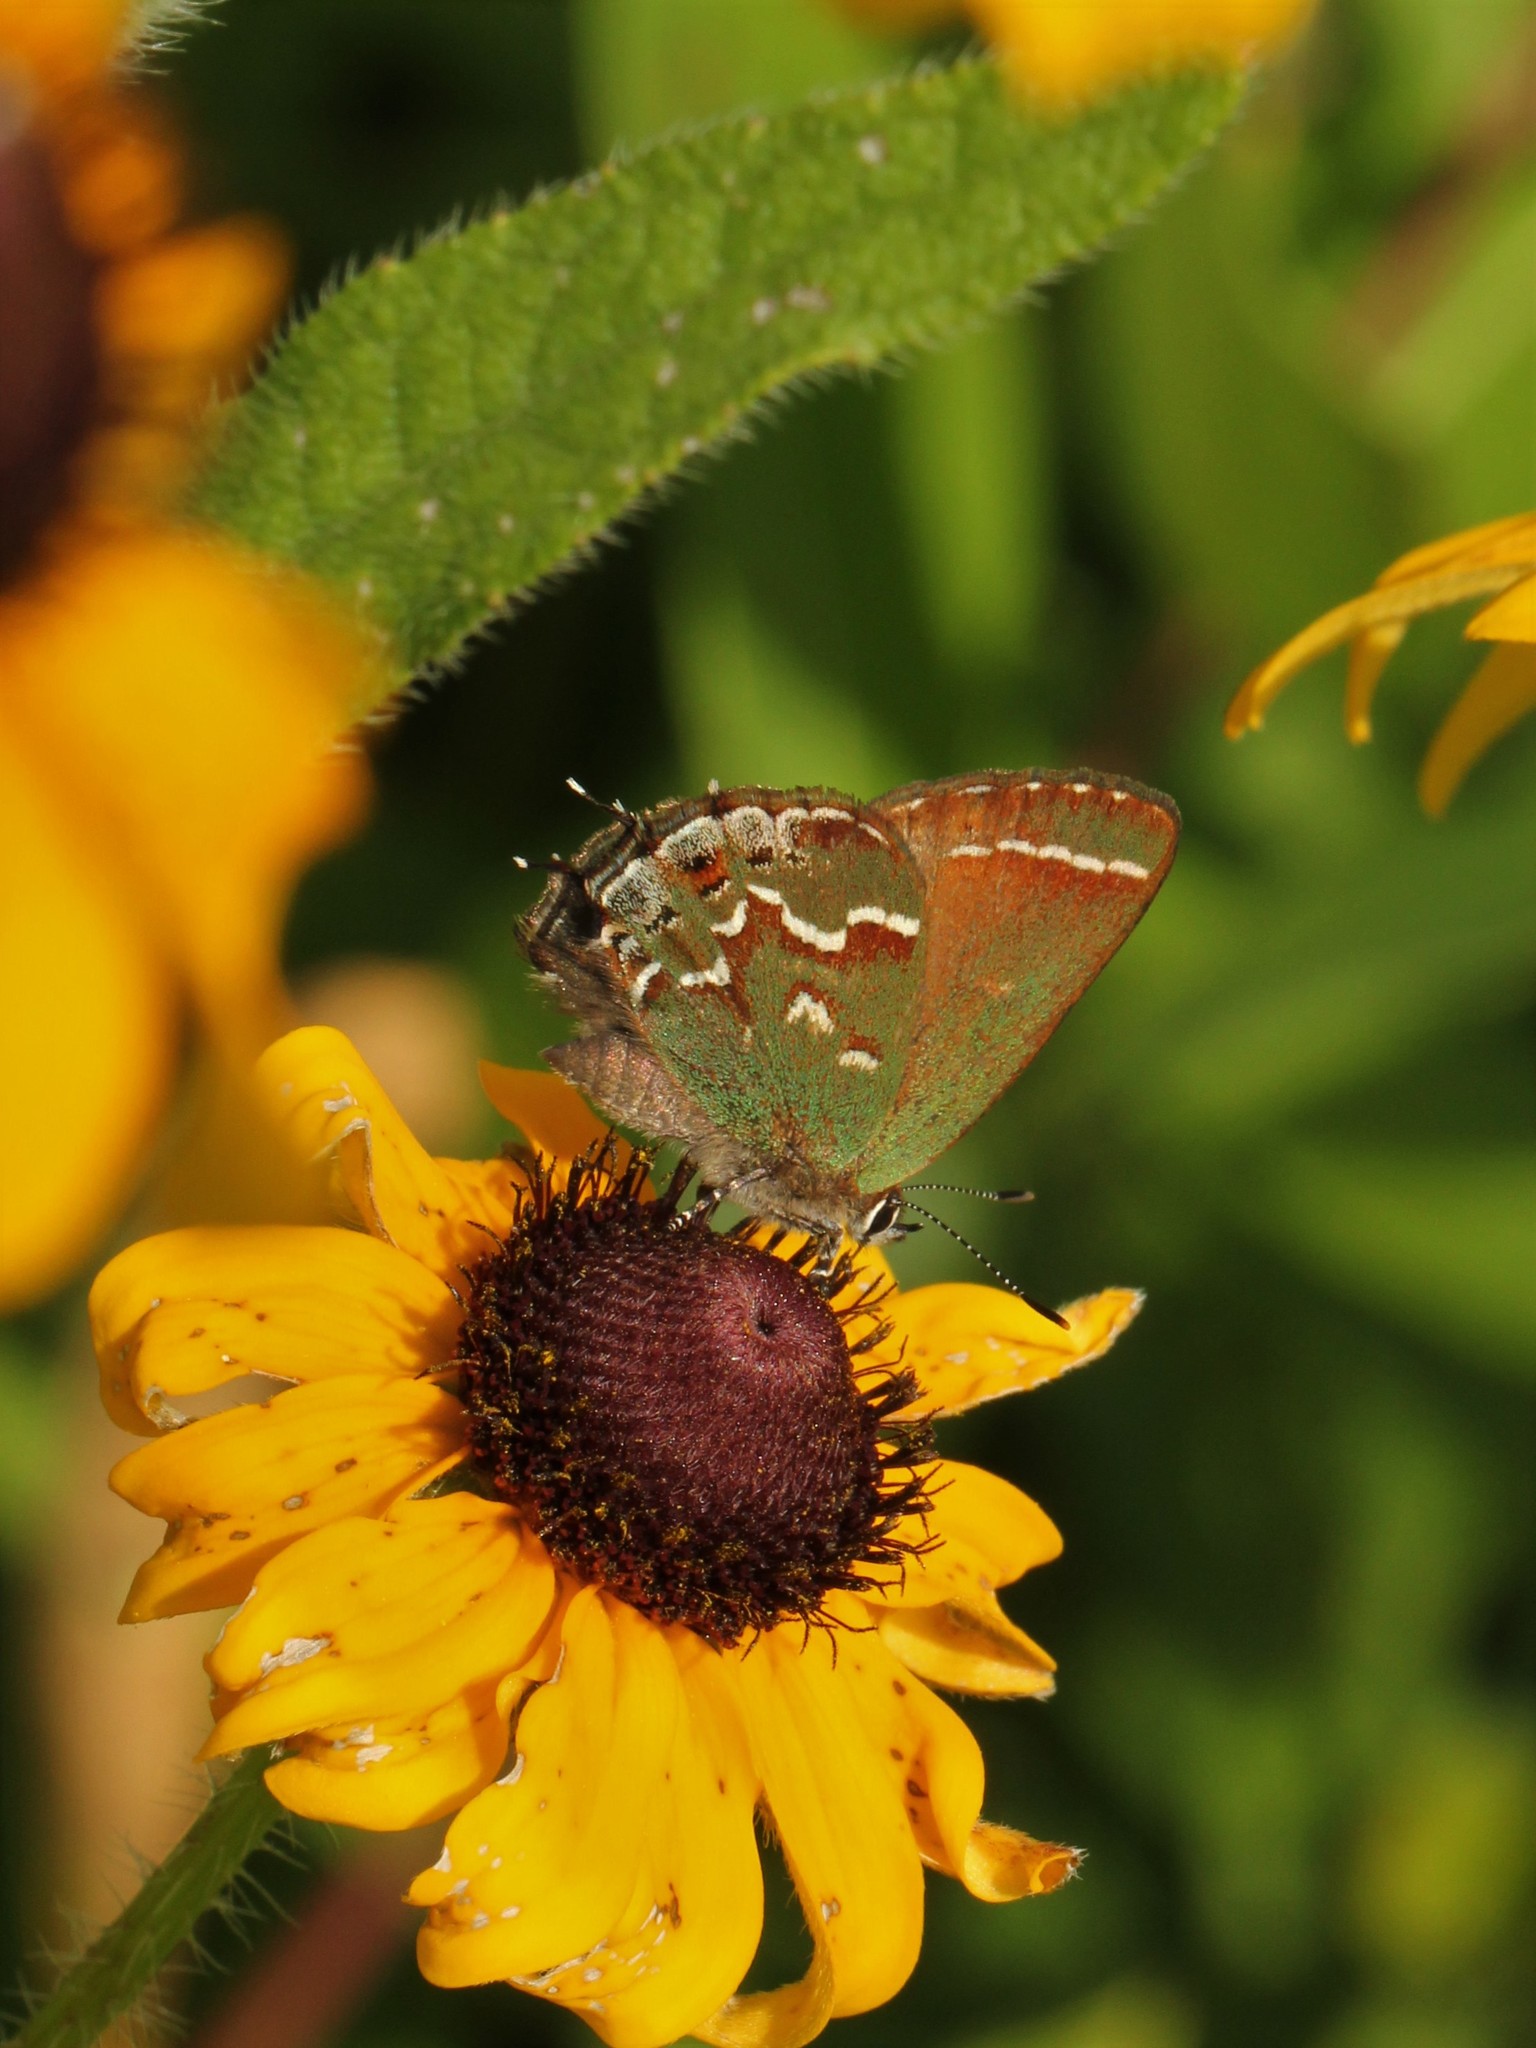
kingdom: Animalia
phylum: Arthropoda
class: Insecta
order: Lepidoptera
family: Lycaenidae
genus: Mitoura
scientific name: Mitoura gryneus
